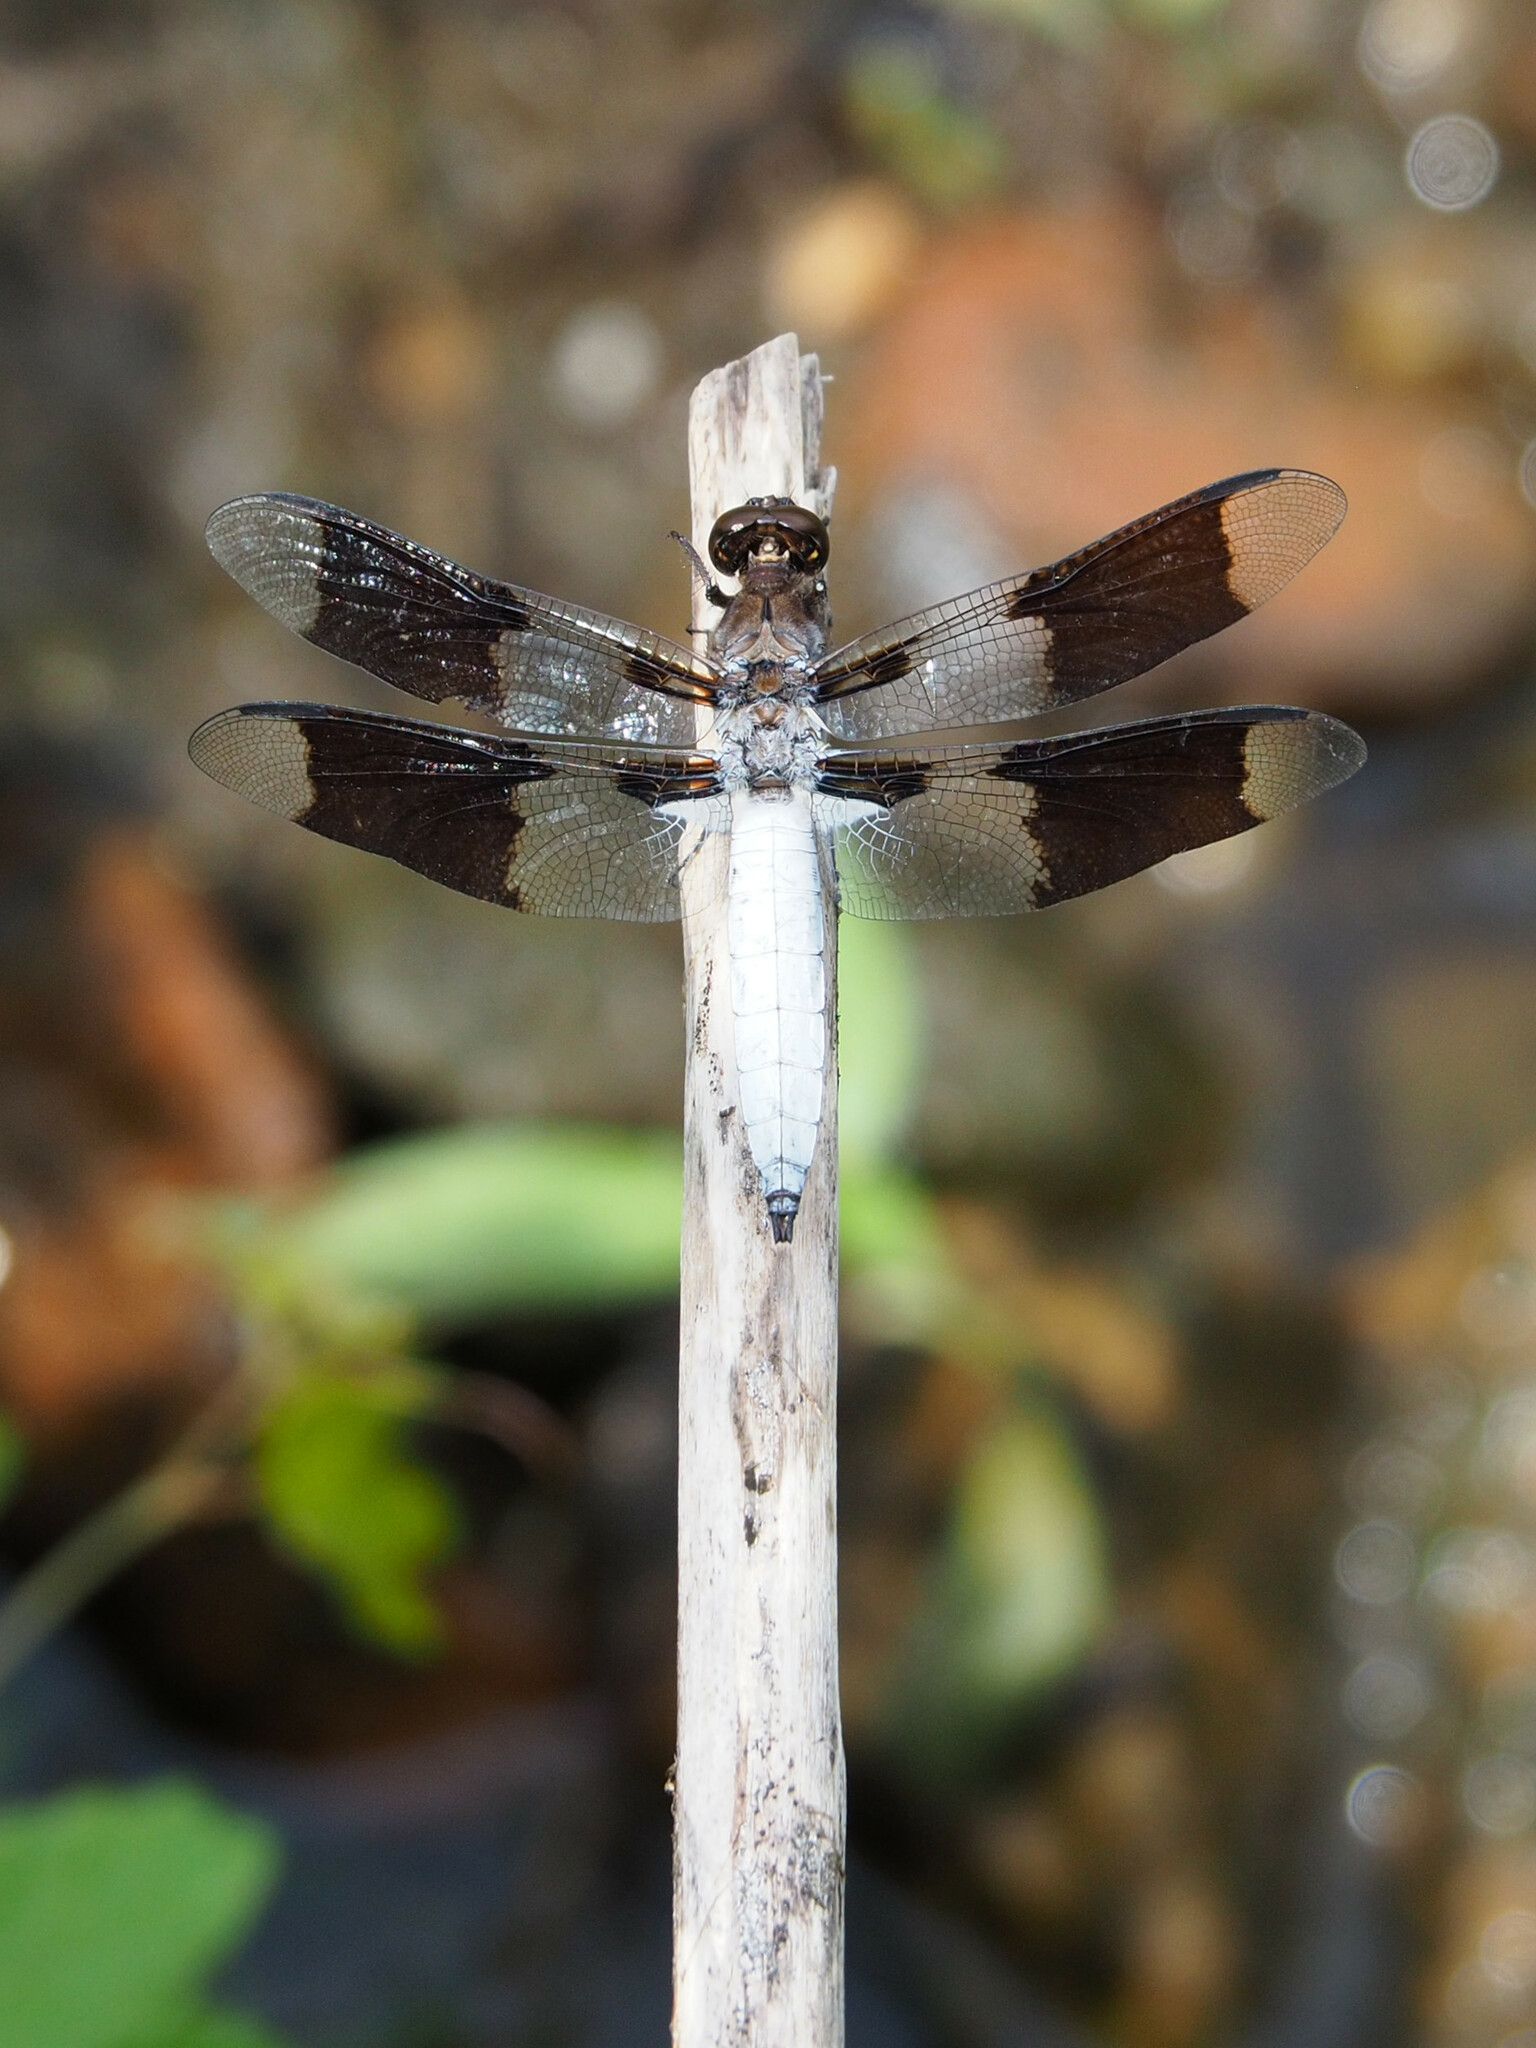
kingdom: Animalia
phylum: Arthropoda
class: Insecta
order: Odonata
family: Libellulidae
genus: Plathemis
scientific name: Plathemis lydia
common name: Common whitetail
